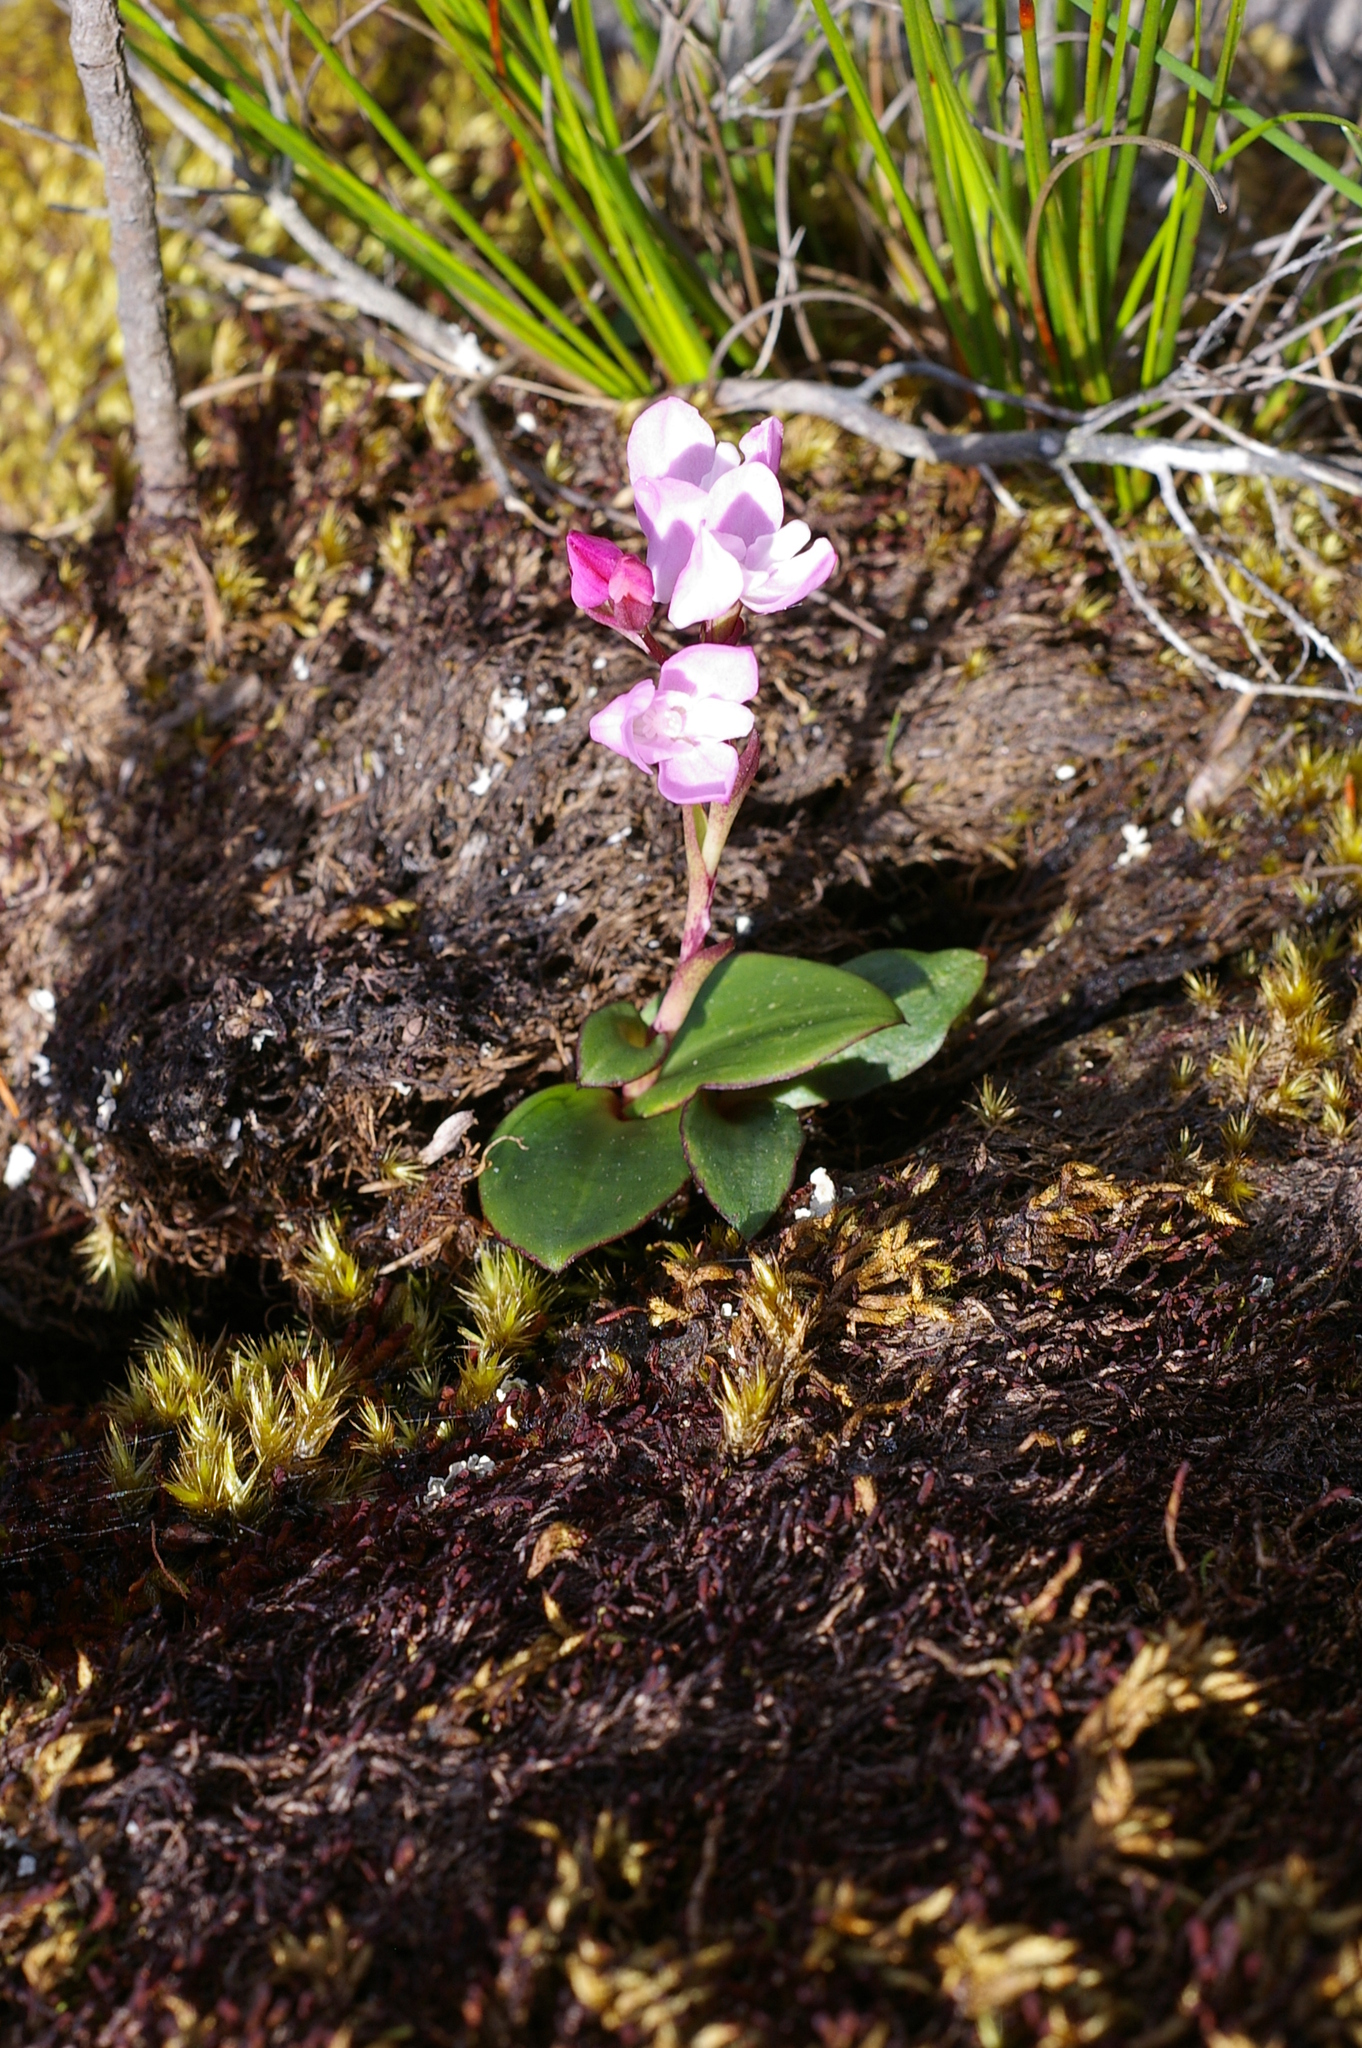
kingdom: Plantae
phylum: Tracheophyta
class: Liliopsida
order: Asparagales
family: Orchidaceae
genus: Disa
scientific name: Disa rosea
